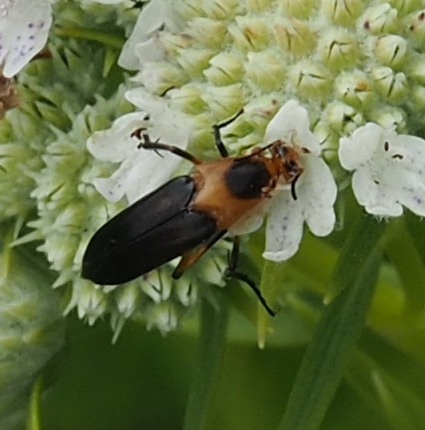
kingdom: Animalia
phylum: Arthropoda
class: Insecta
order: Coleoptera
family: Ripiphoridae
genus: Macrosiagon
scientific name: Macrosiagon limbatum
